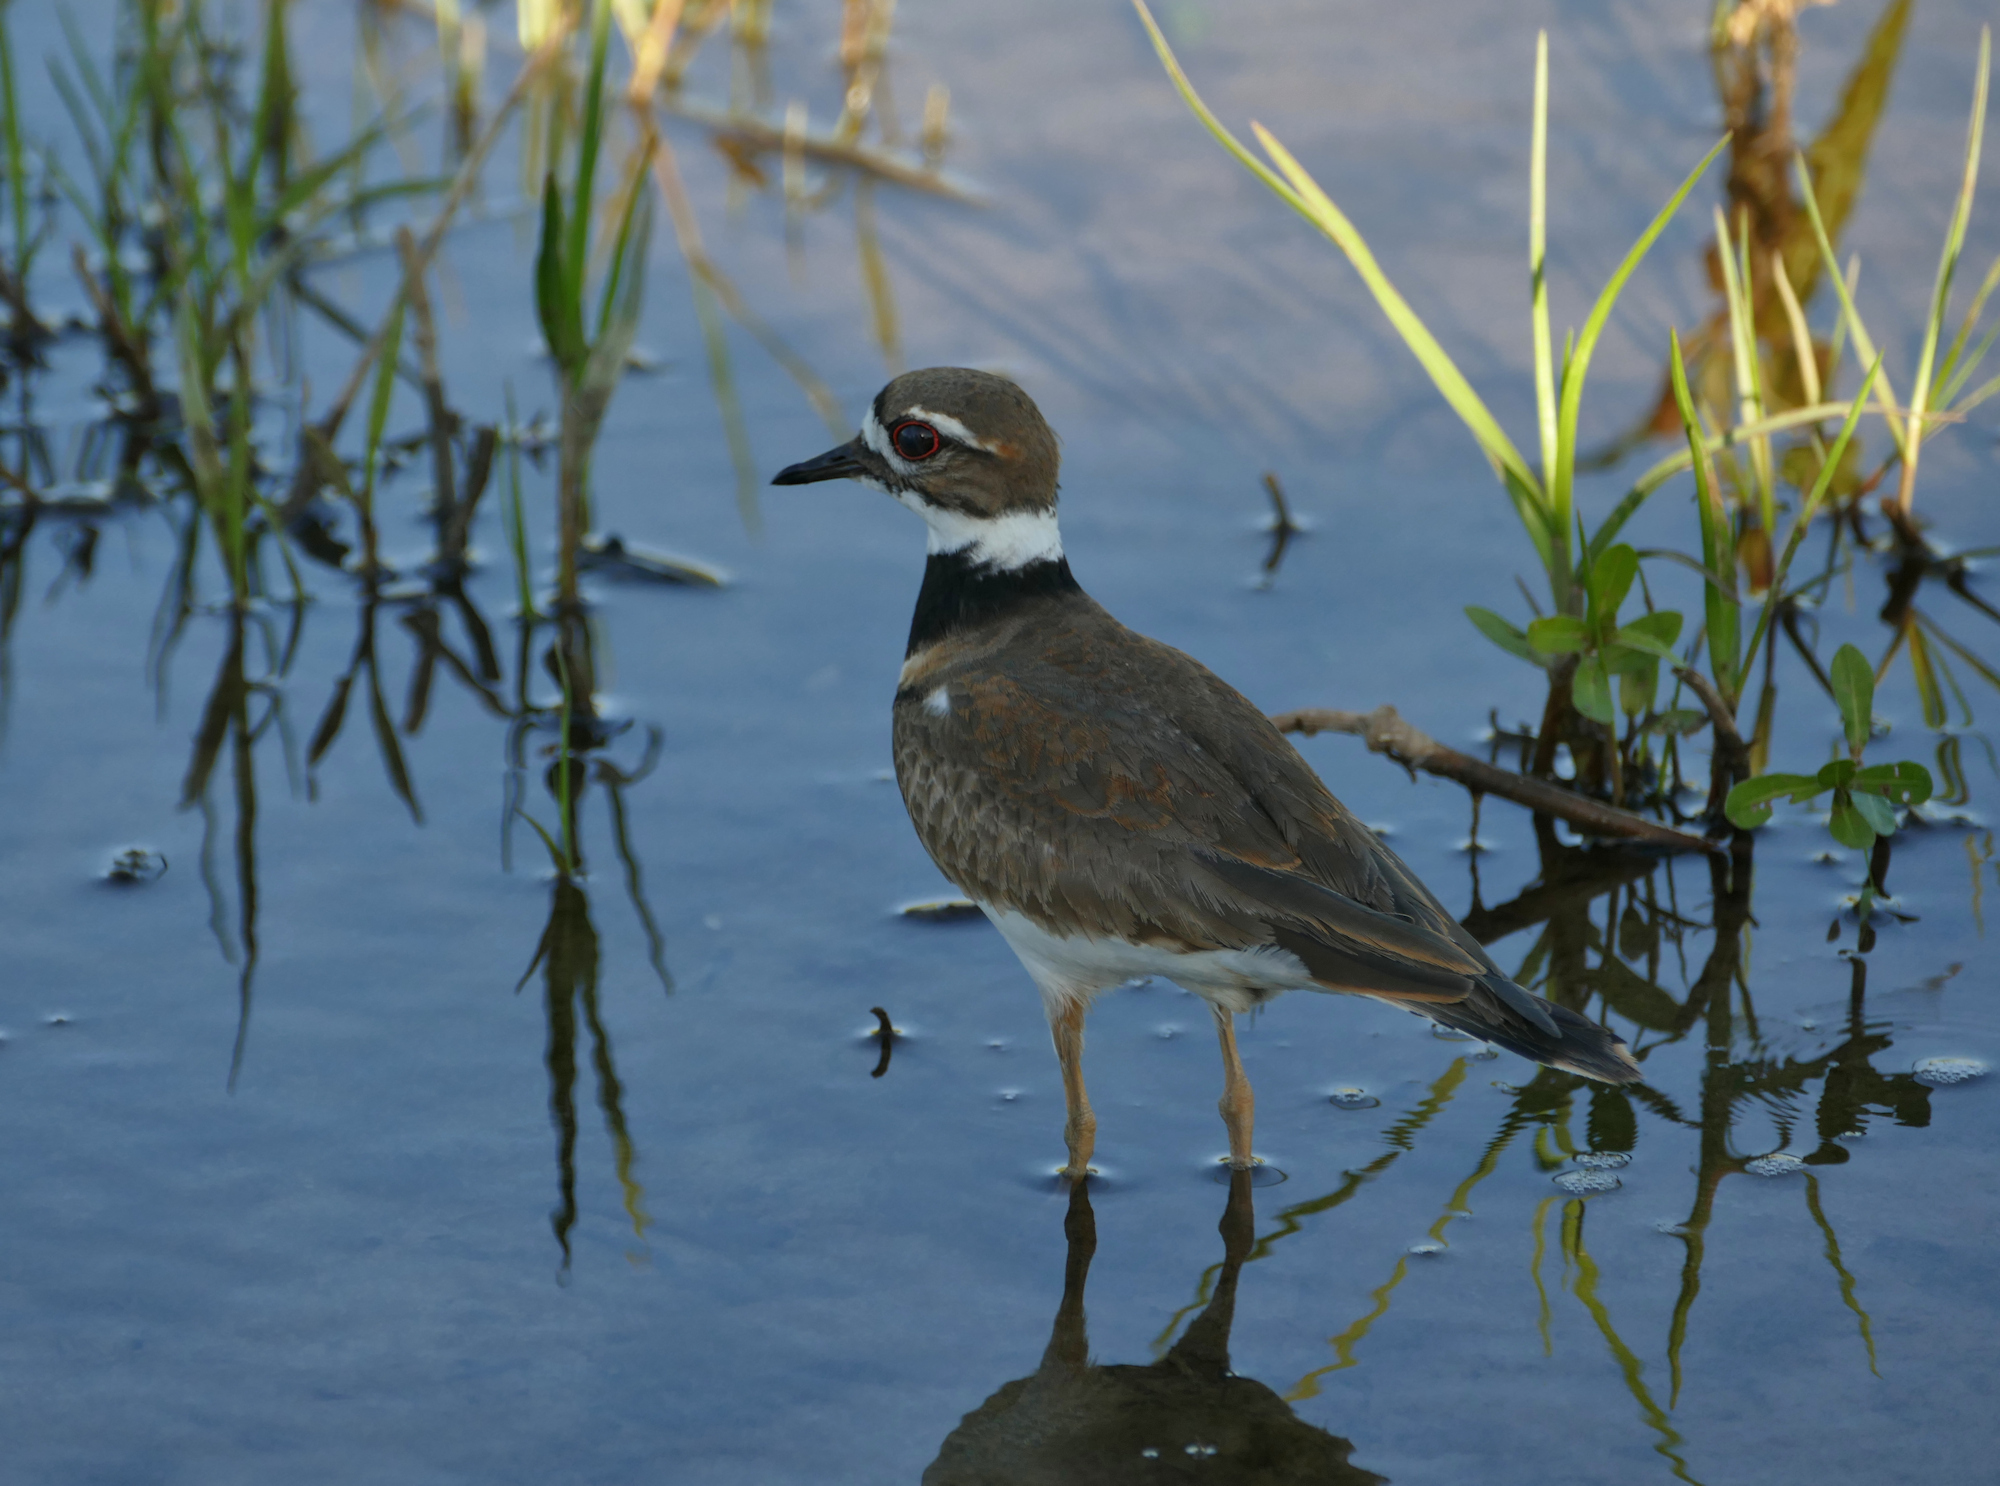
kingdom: Animalia
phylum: Chordata
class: Aves
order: Charadriiformes
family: Charadriidae
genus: Charadrius
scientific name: Charadrius vociferus
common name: Killdeer
